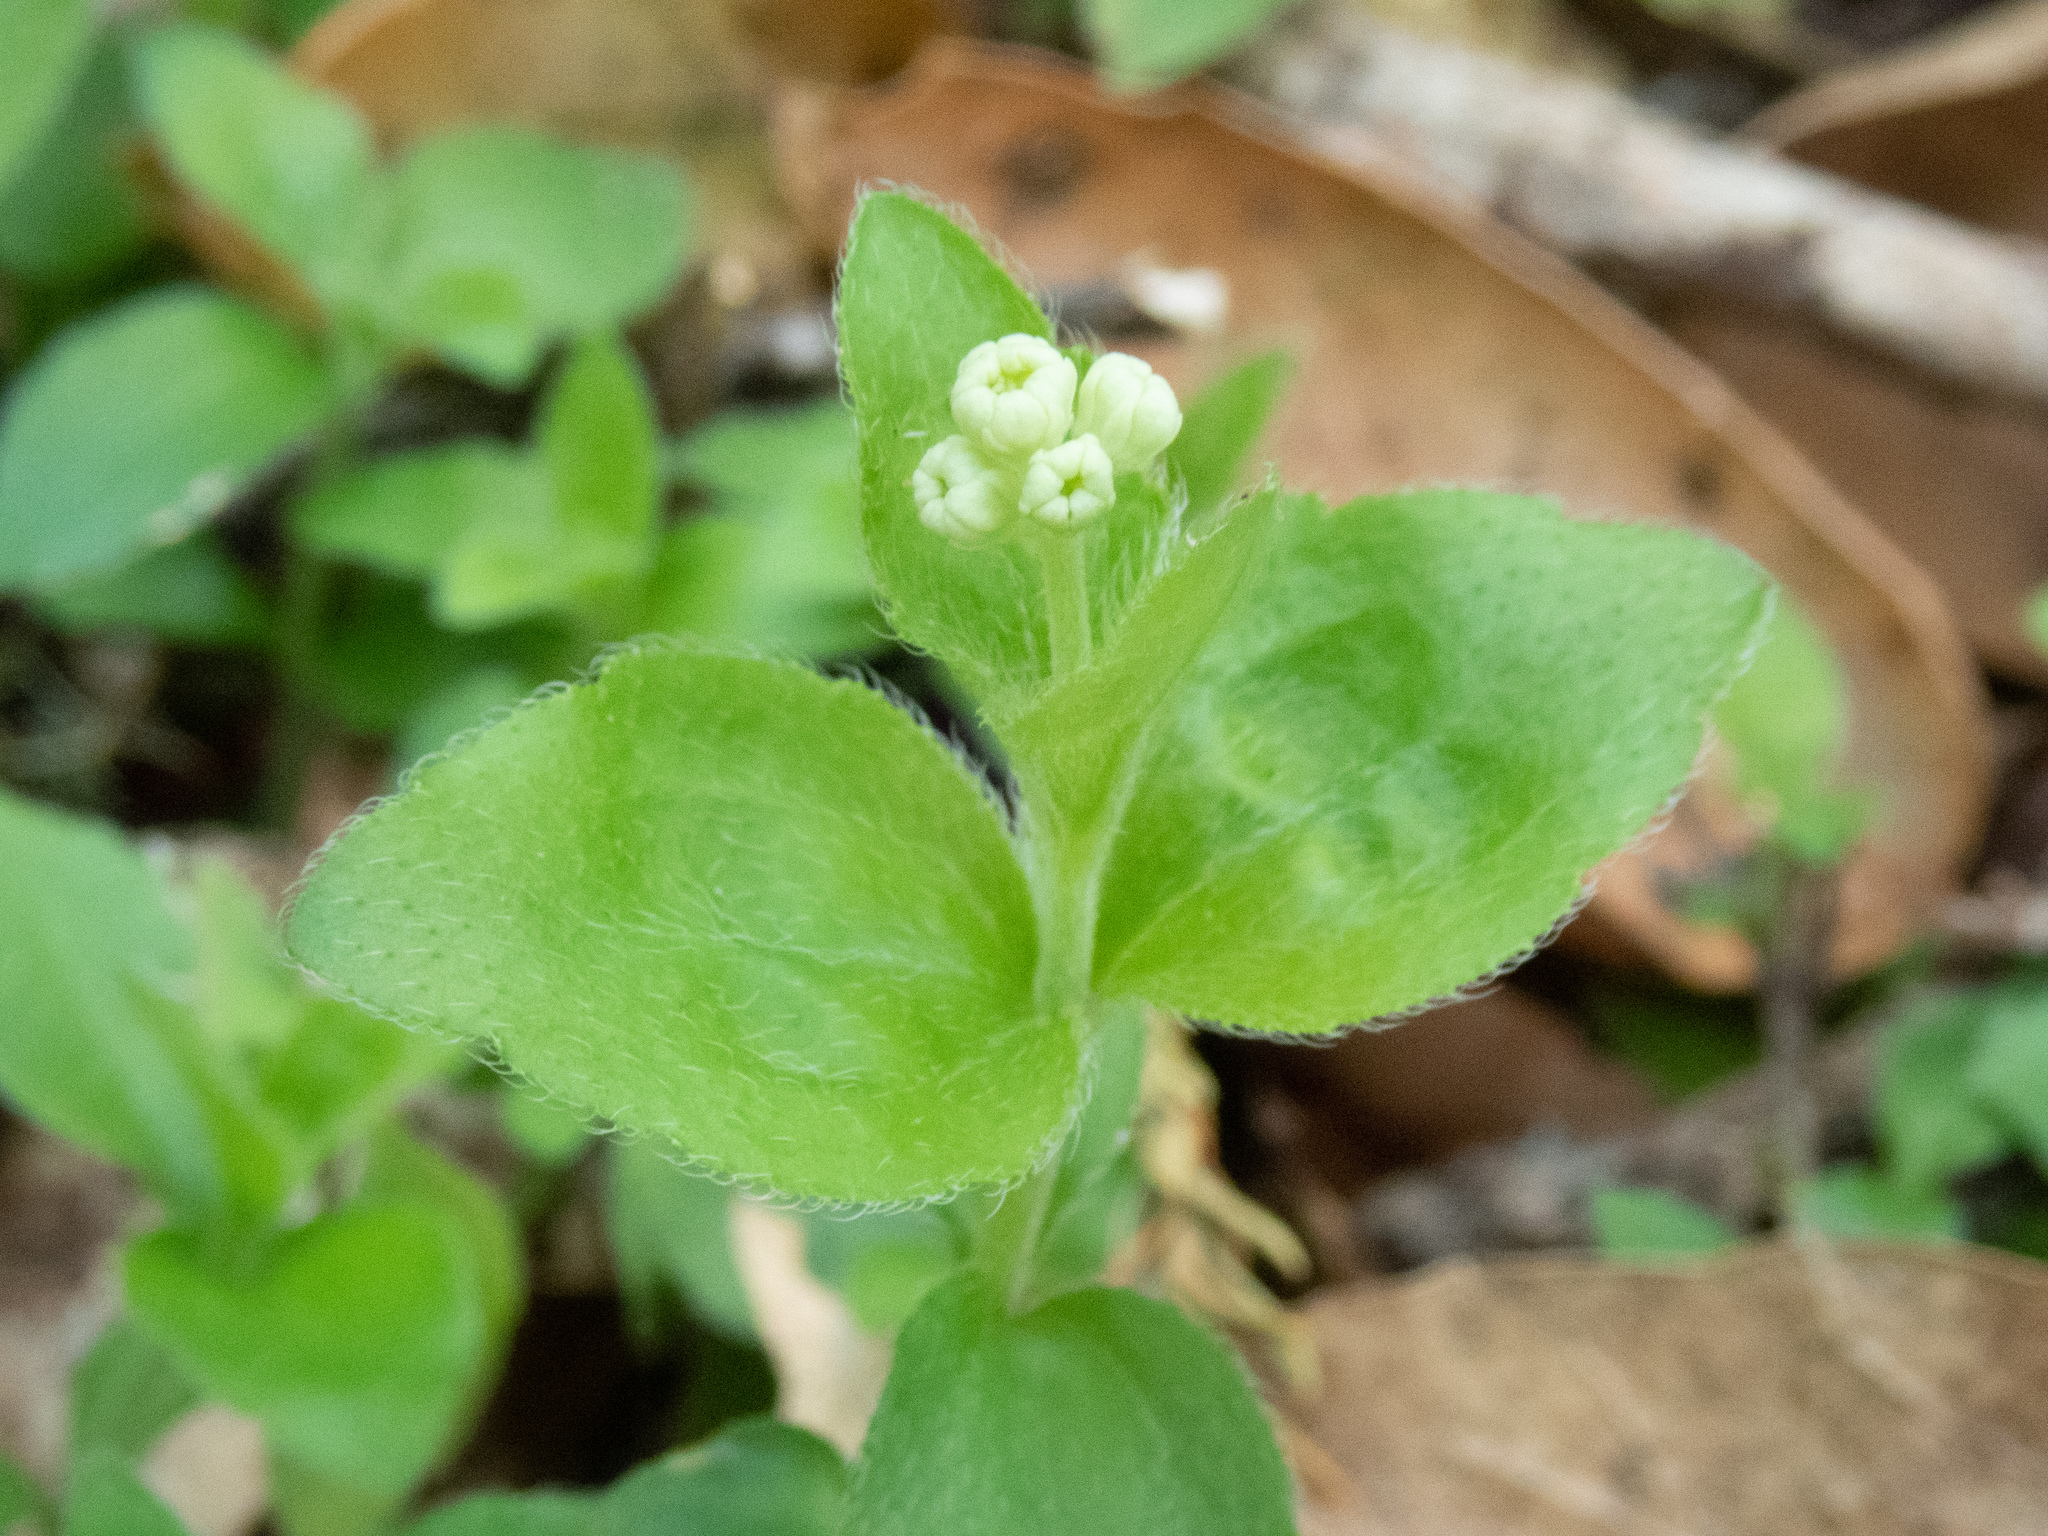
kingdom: Plantae
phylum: Tracheophyta
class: Magnoliopsida
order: Cornales
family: Hydrangeaceae
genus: Whipplea
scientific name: Whipplea modesta
